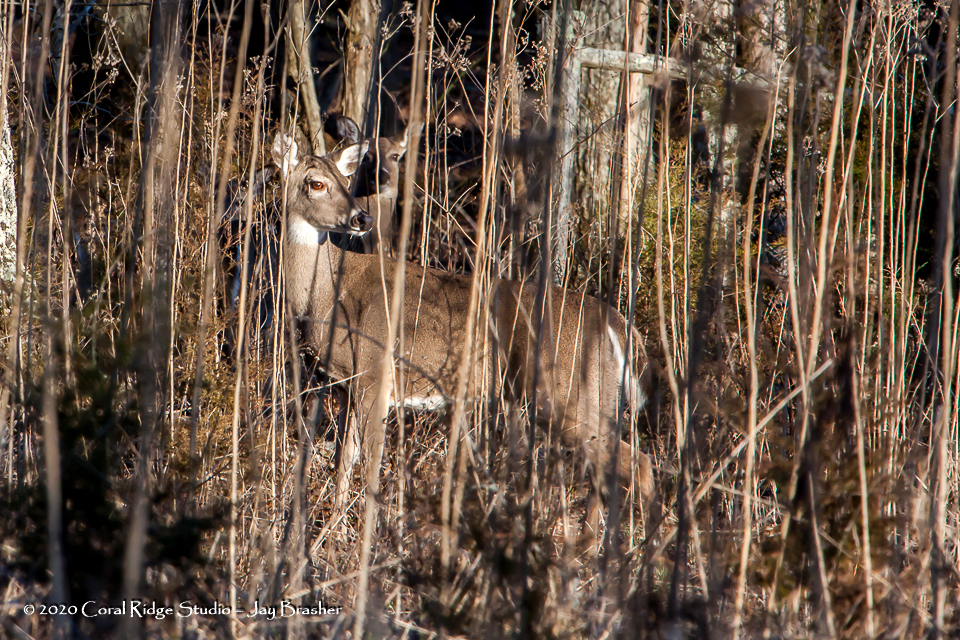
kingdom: Animalia
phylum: Chordata
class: Mammalia
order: Artiodactyla
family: Cervidae
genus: Odocoileus
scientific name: Odocoileus virginianus
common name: White-tailed deer
